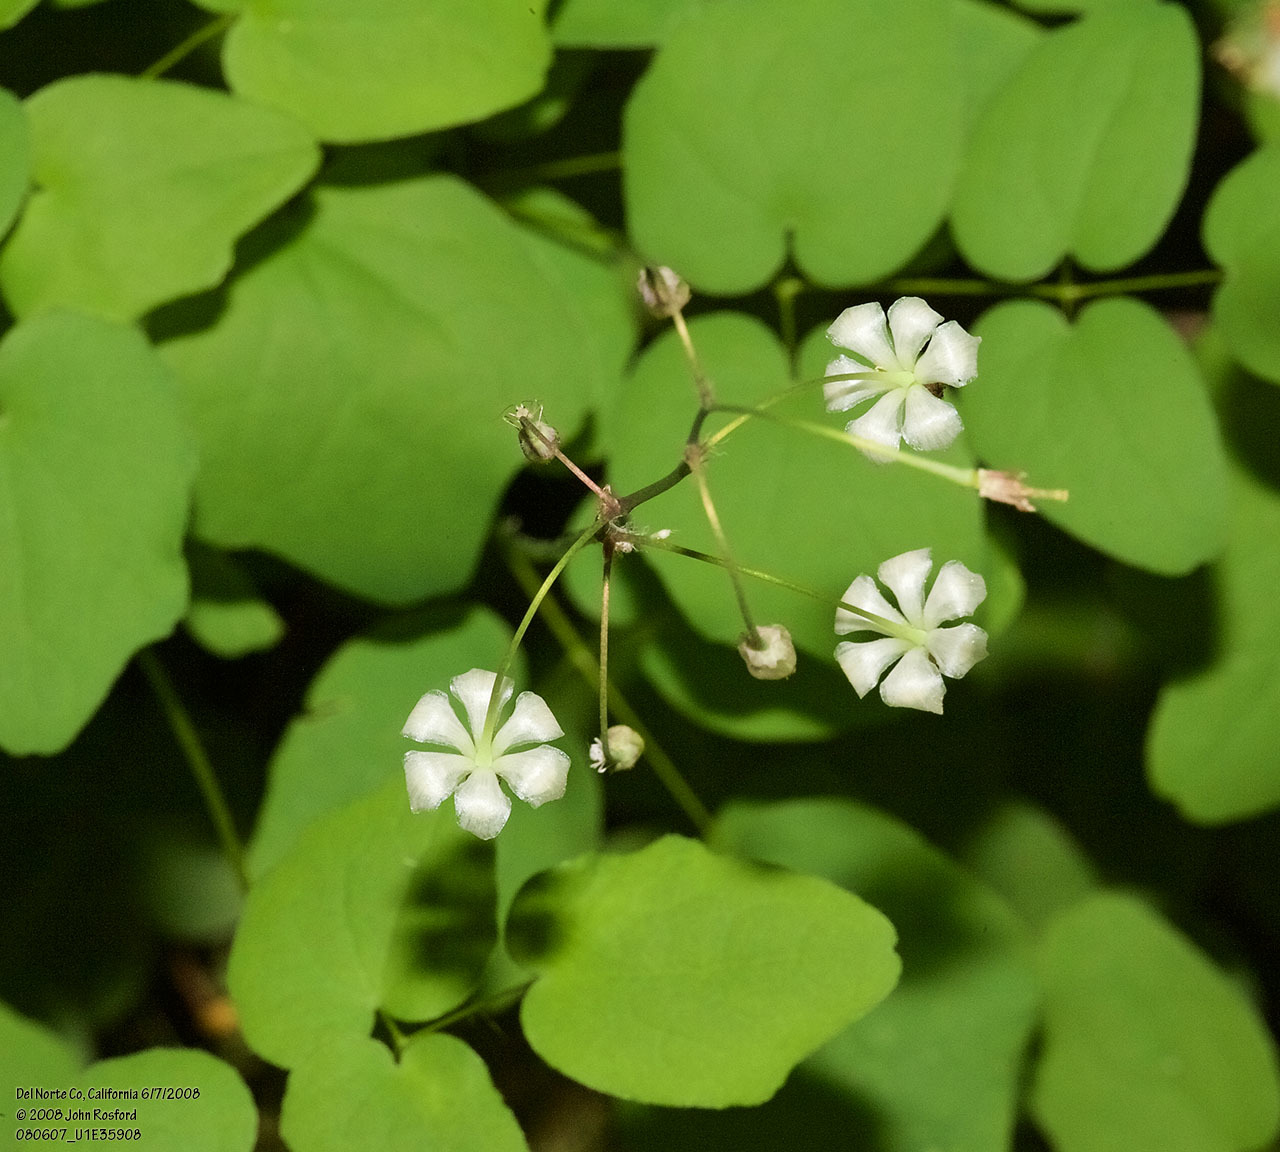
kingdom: Plantae
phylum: Tracheophyta
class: Magnoliopsida
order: Ranunculales
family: Berberidaceae
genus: Vancouveria
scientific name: Vancouveria hexandra
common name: Northern inside-out-flower
